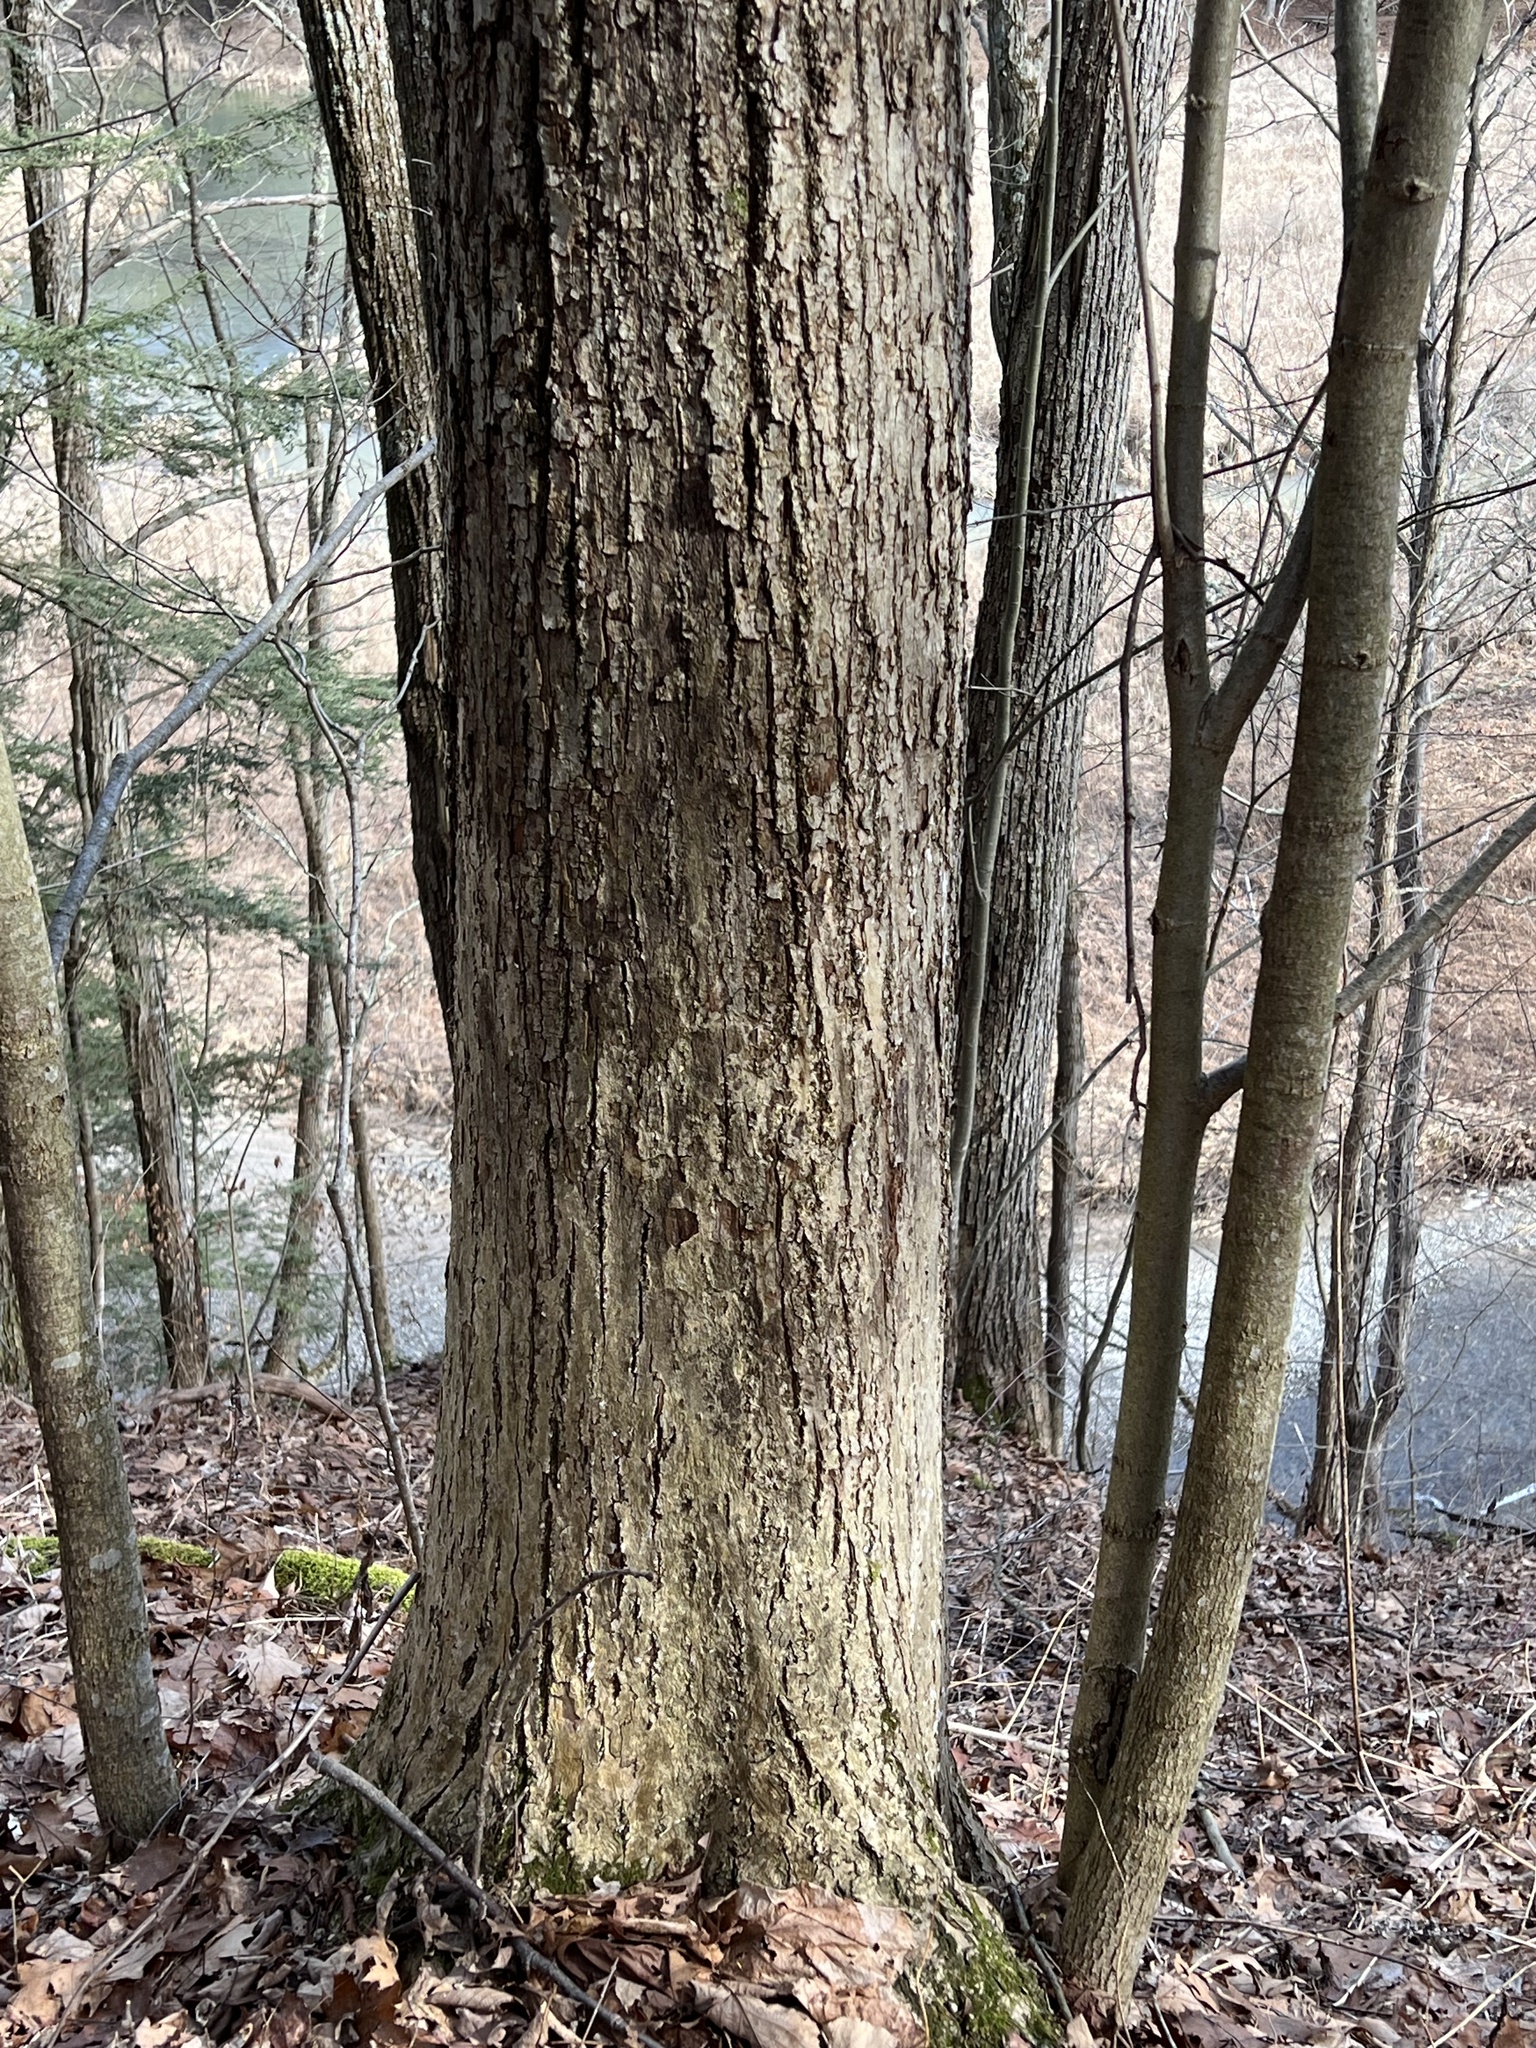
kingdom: Plantae
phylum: Tracheophyta
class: Magnoliopsida
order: Malvales
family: Malvaceae
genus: Tilia
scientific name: Tilia americana
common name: Basswood
